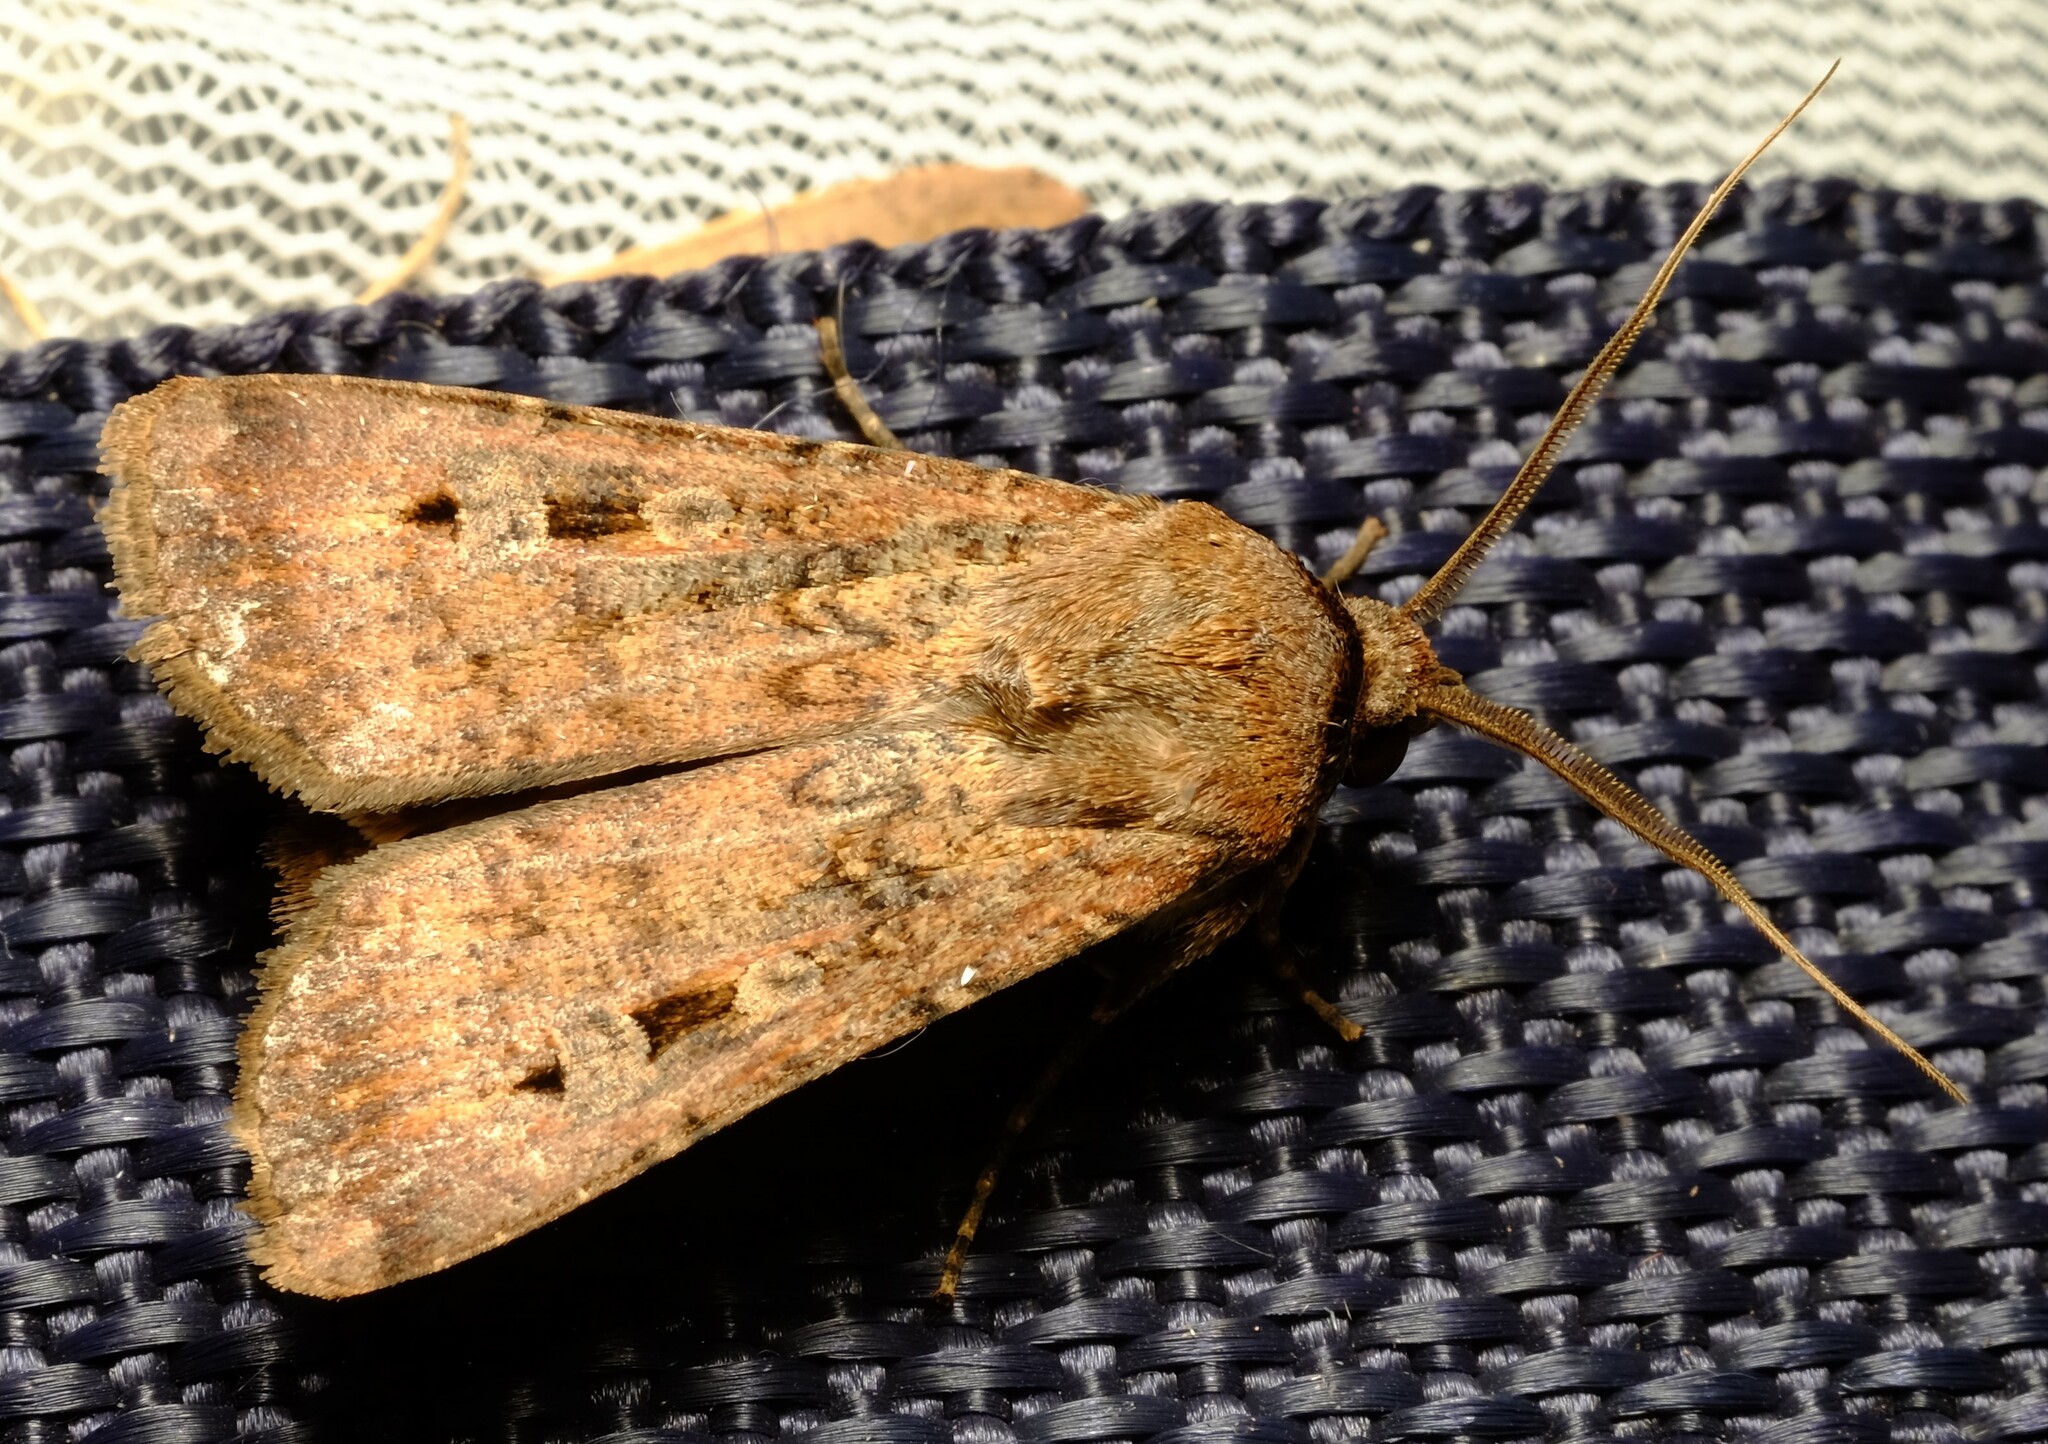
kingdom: Animalia
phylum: Arthropoda
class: Insecta
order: Lepidoptera
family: Noctuidae
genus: Agrotis
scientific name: Agrotis infusa
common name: Bogong moth
